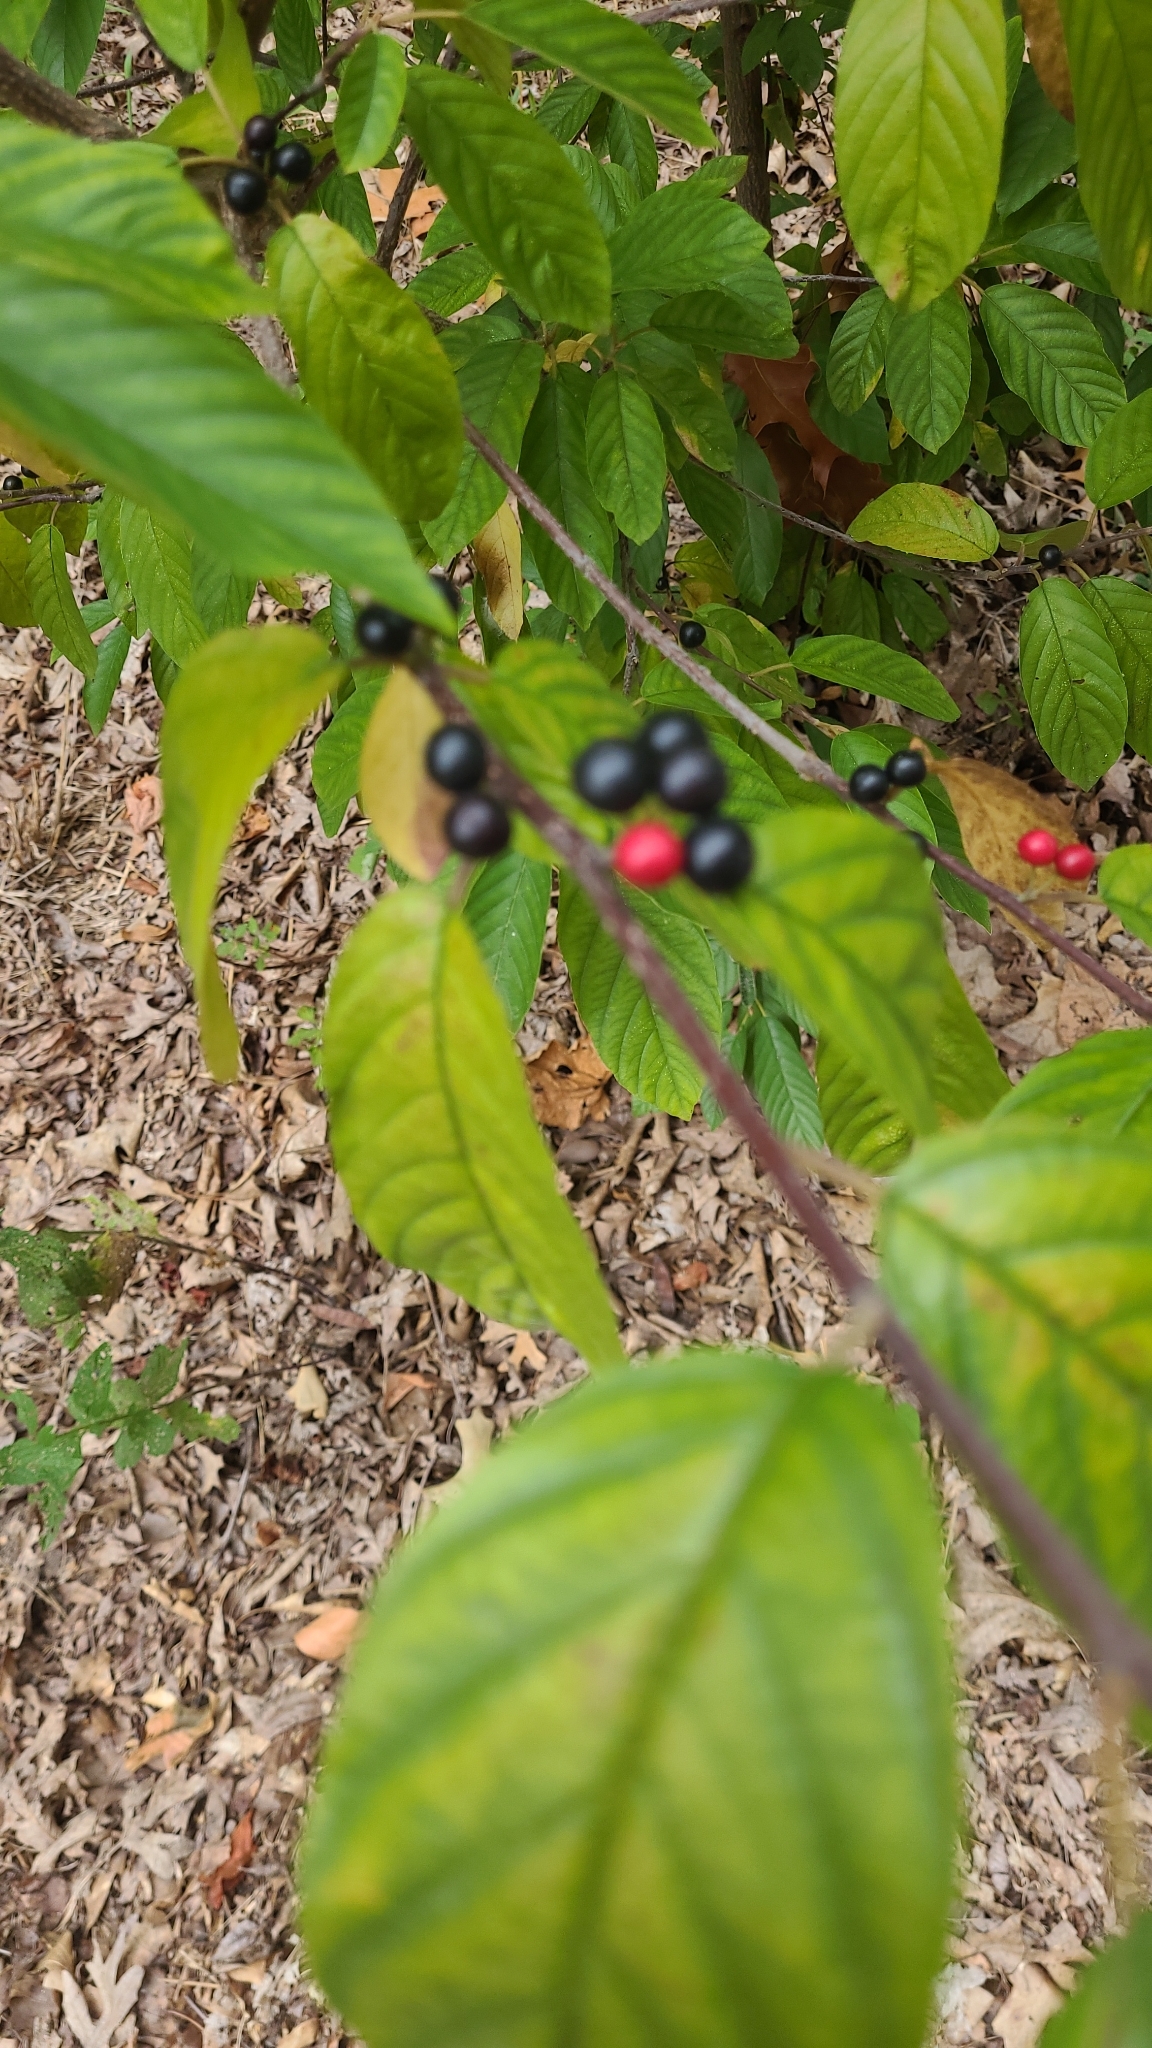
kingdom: Plantae
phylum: Tracheophyta
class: Magnoliopsida
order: Rosales
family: Rhamnaceae
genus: Frangula
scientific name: Frangula caroliniana
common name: Carolina buckthorn
